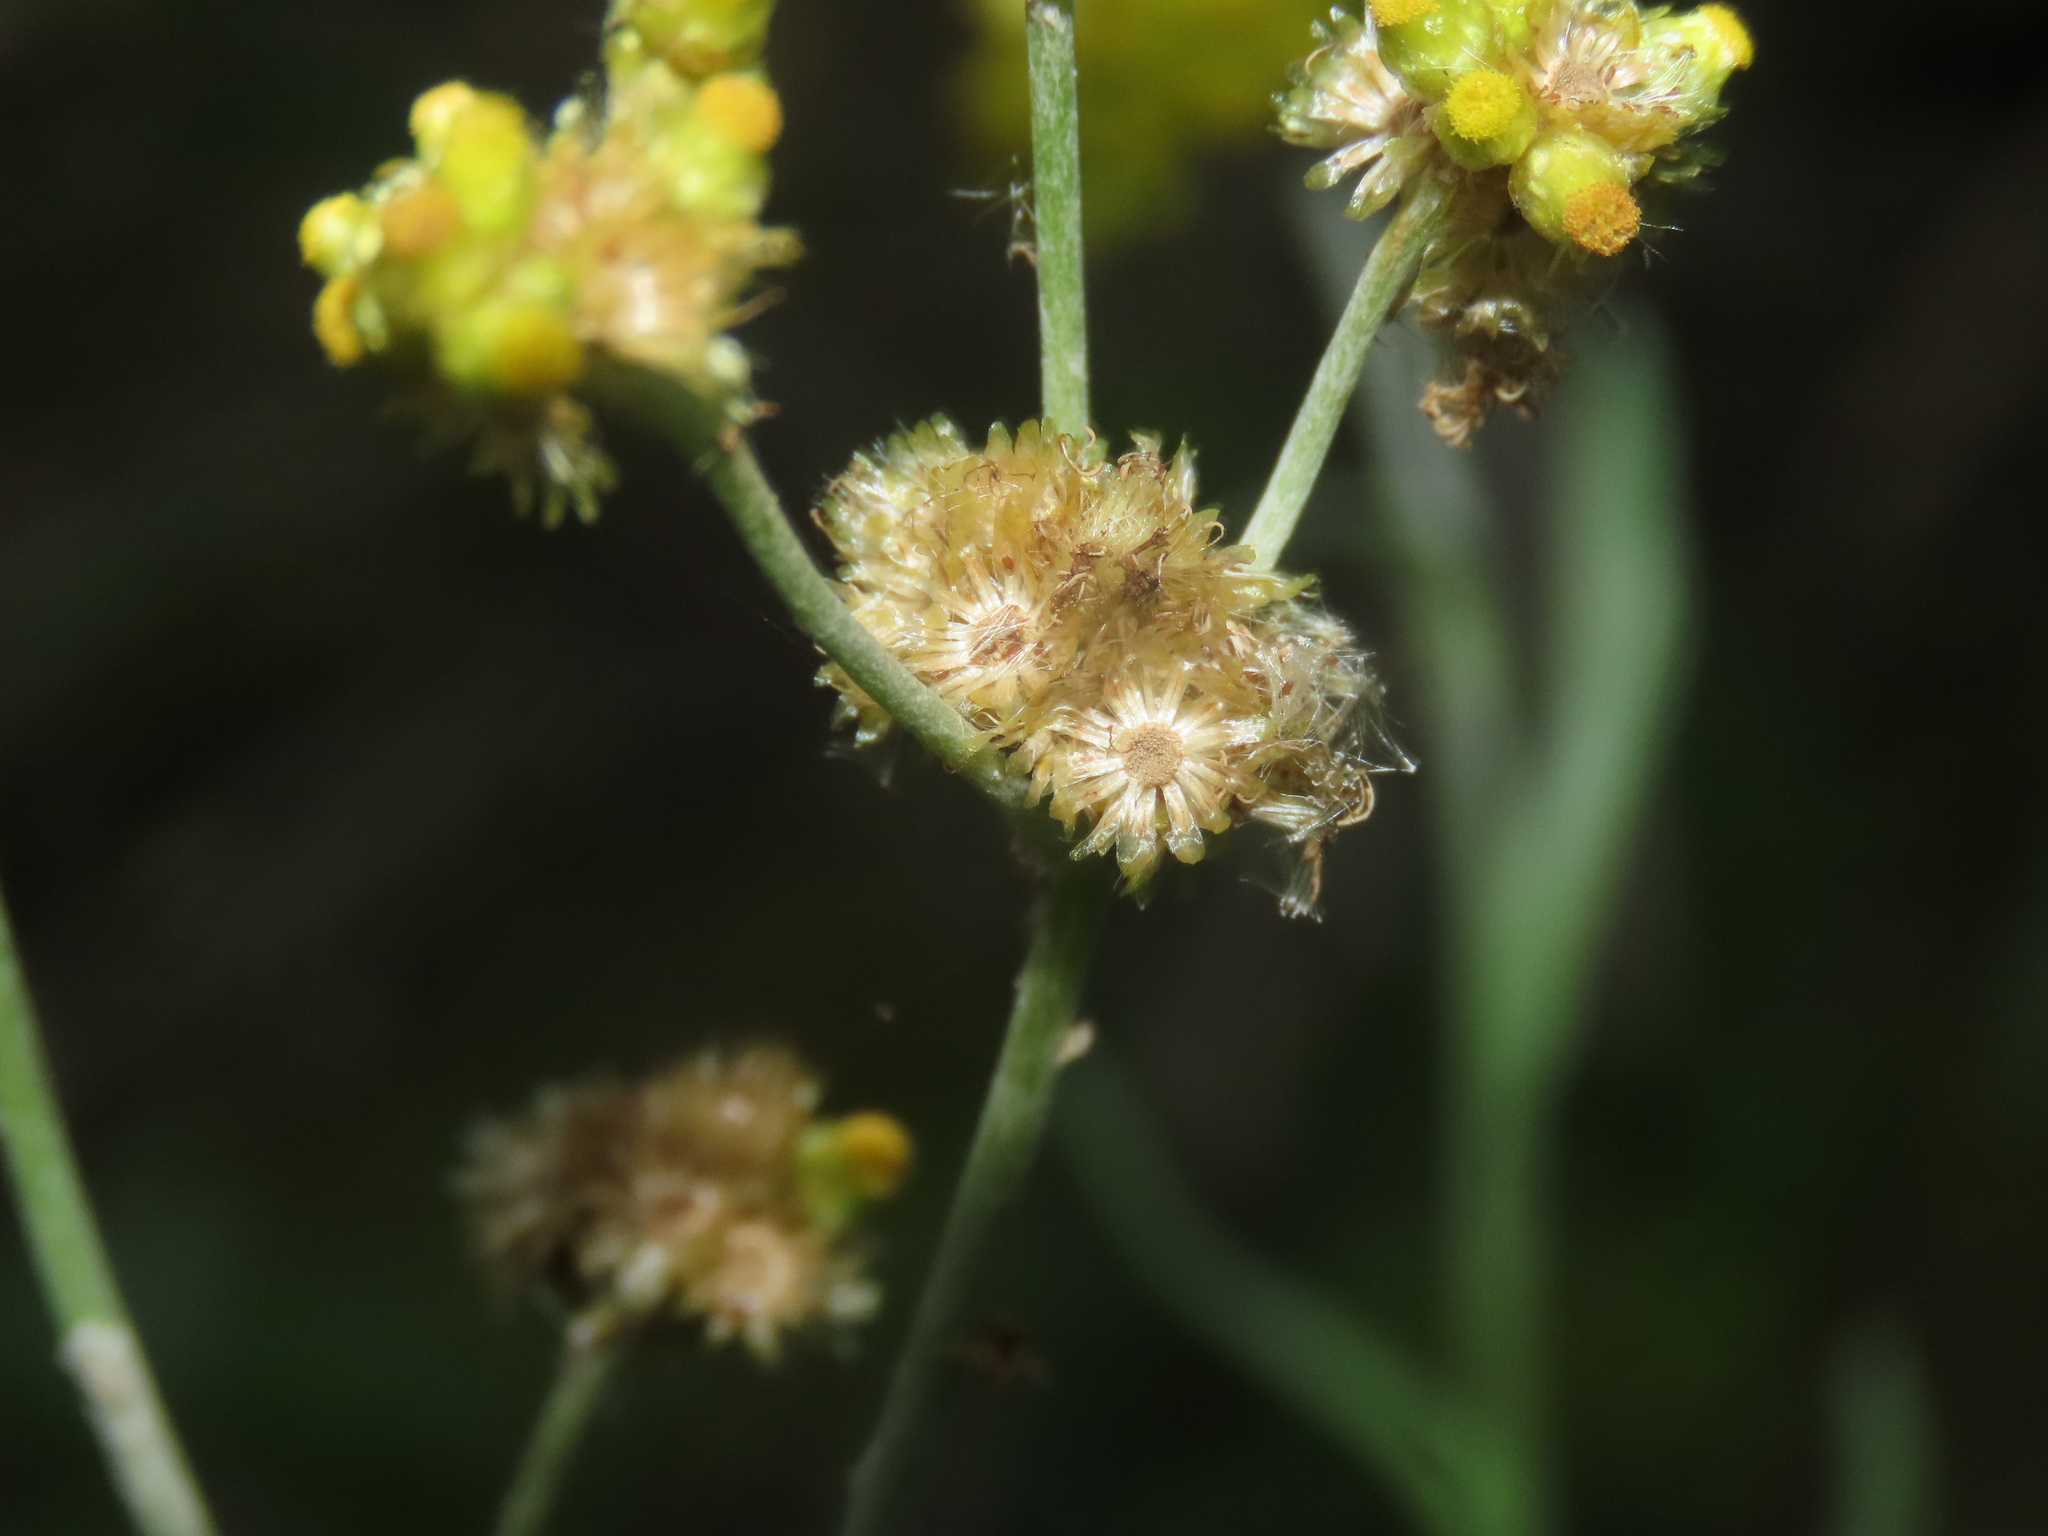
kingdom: Plantae
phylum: Tracheophyta
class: Magnoliopsida
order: Asterales
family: Asteraceae
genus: Pseudognaphalium
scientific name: Pseudognaphalium affine
